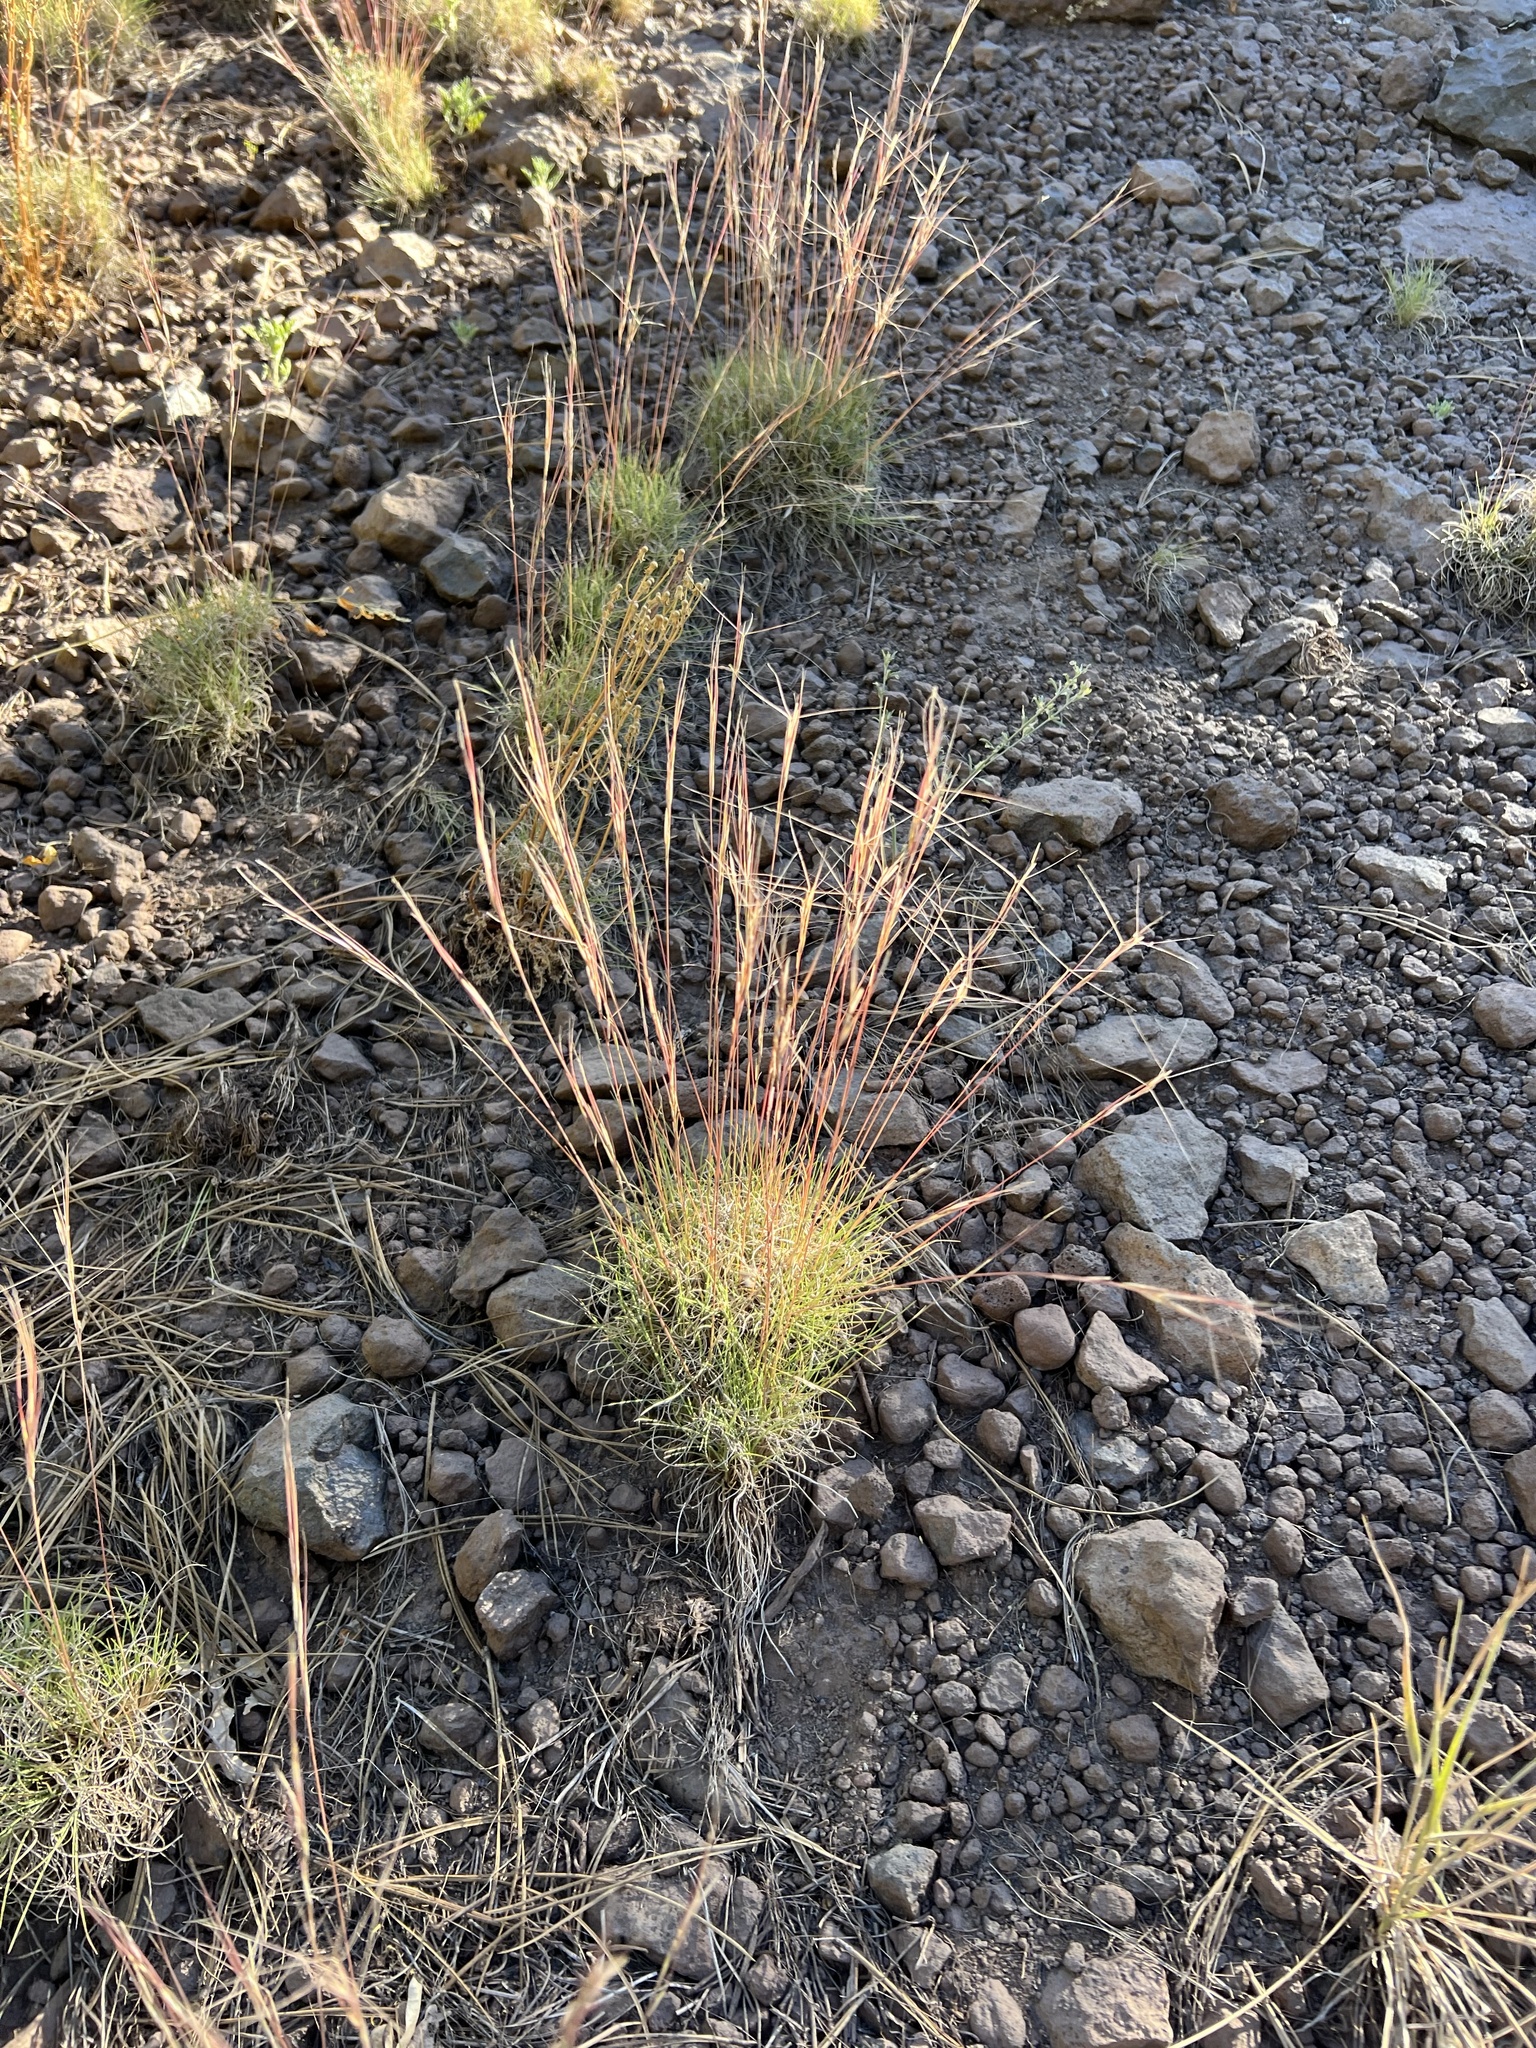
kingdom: Plantae
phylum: Tracheophyta
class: Liliopsida
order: Poales
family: Poaceae
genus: Aristida
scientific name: Aristida purpurea
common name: Purple threeawn
